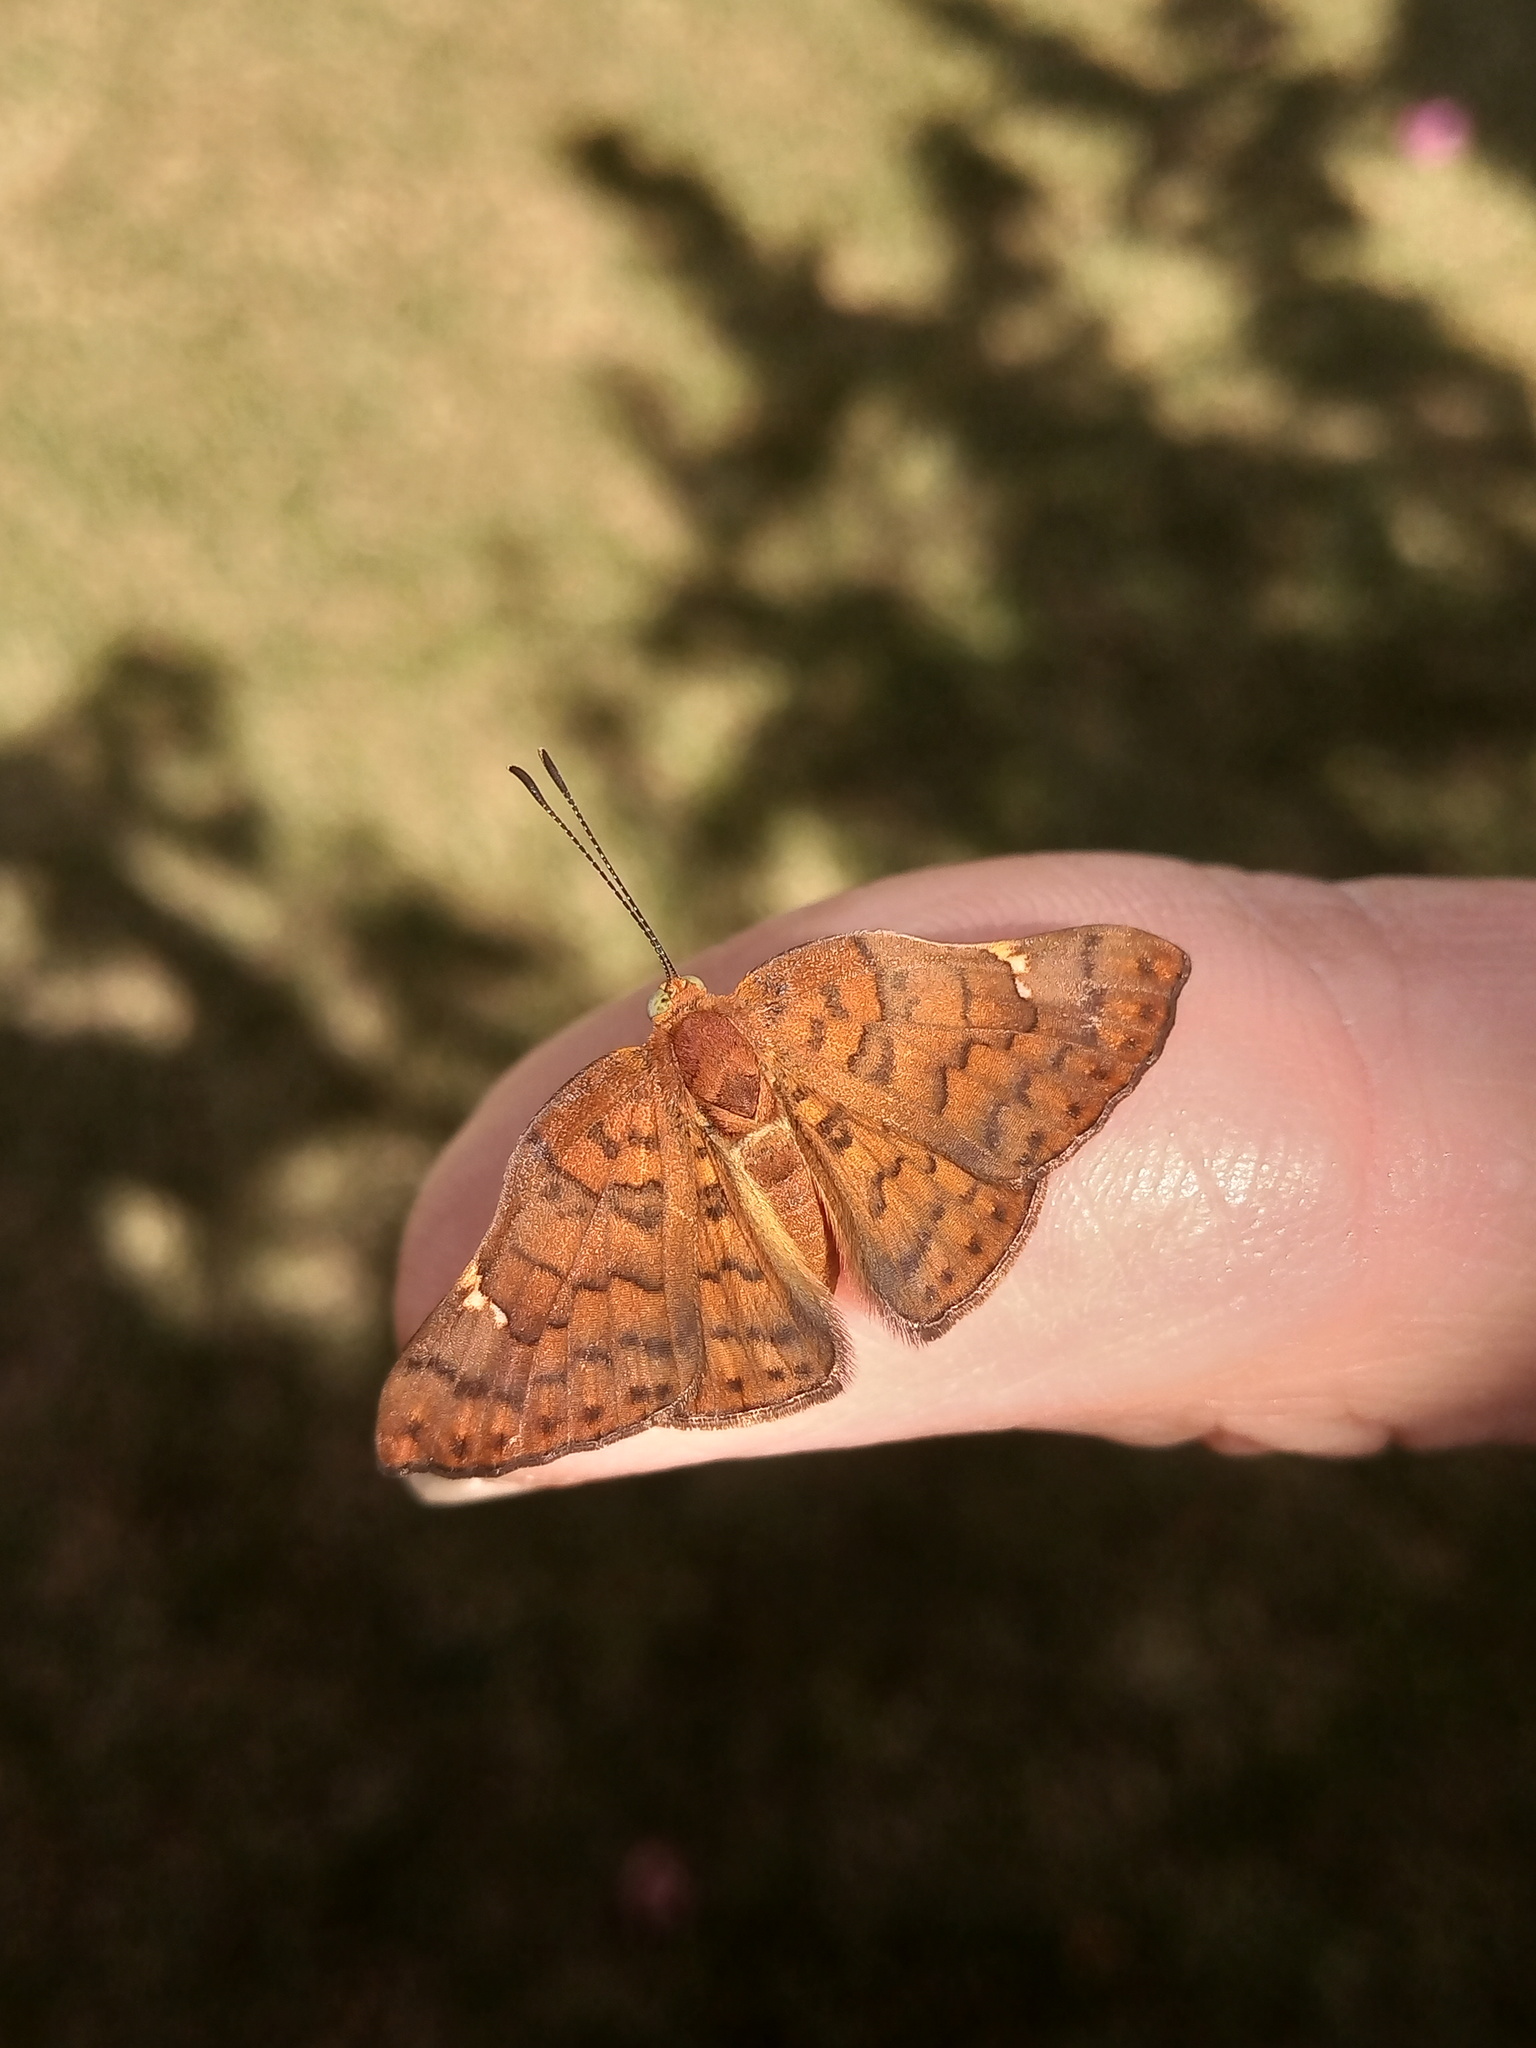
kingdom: Animalia
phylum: Arthropoda
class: Insecta
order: Lepidoptera
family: Riodinidae
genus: Curvie
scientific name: Curvie emesia
